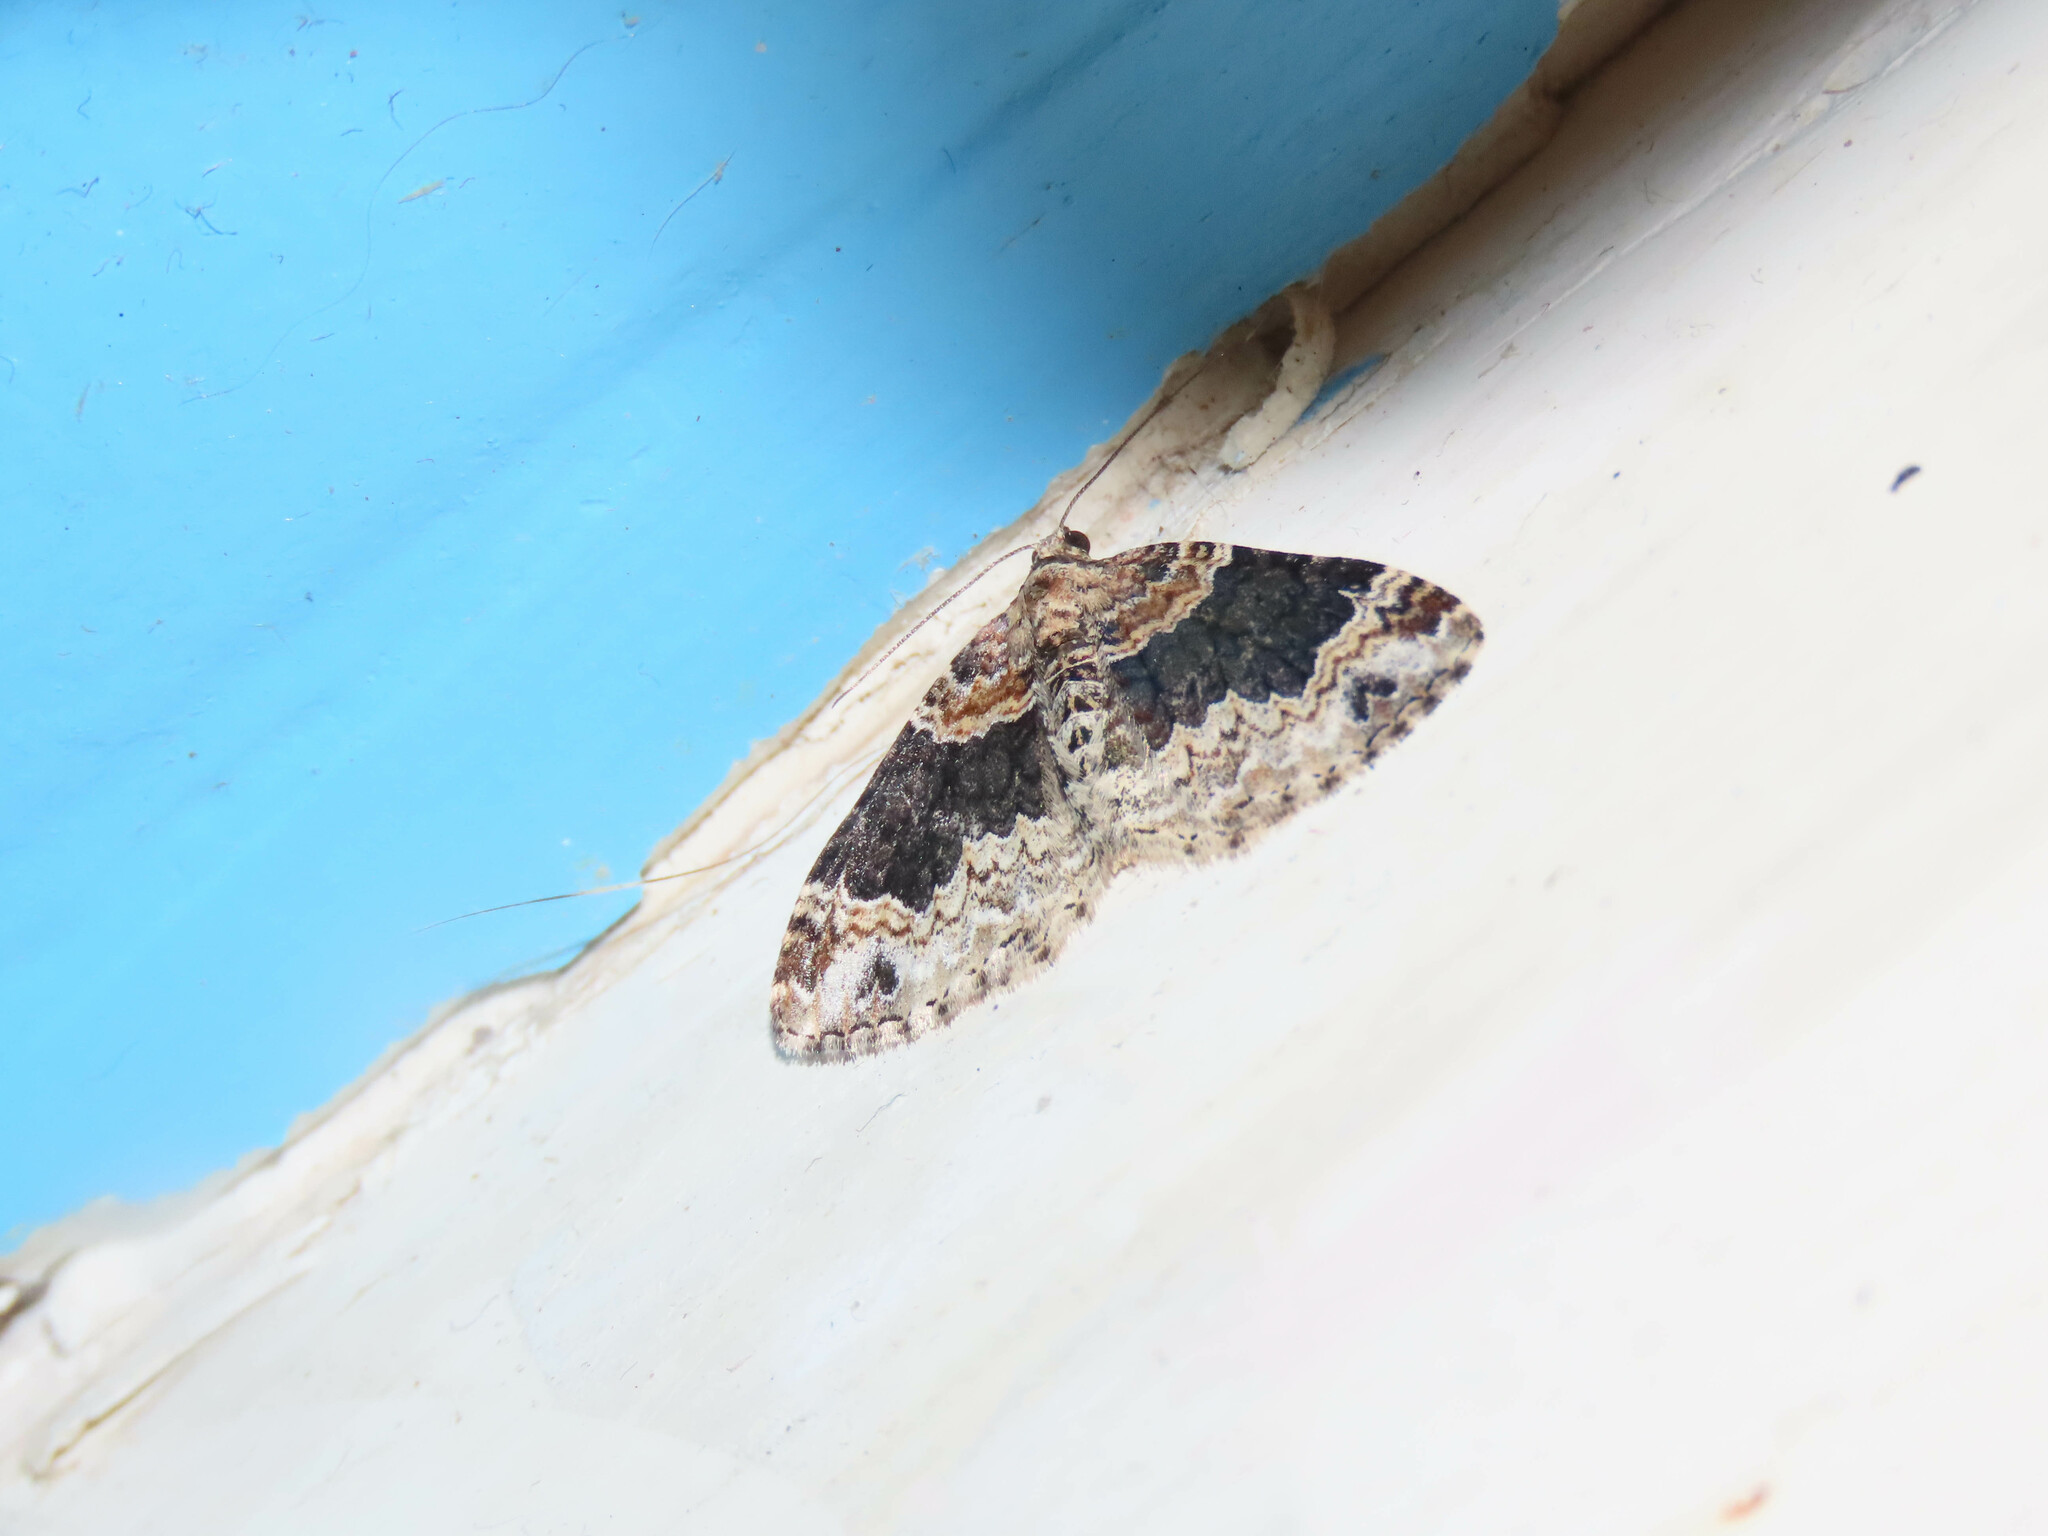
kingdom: Animalia
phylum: Arthropoda
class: Insecta
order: Lepidoptera
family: Geometridae
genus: Xanthorhoe
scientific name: Xanthorhoe ferrugata
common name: Dark-barred twin-spot carpet
